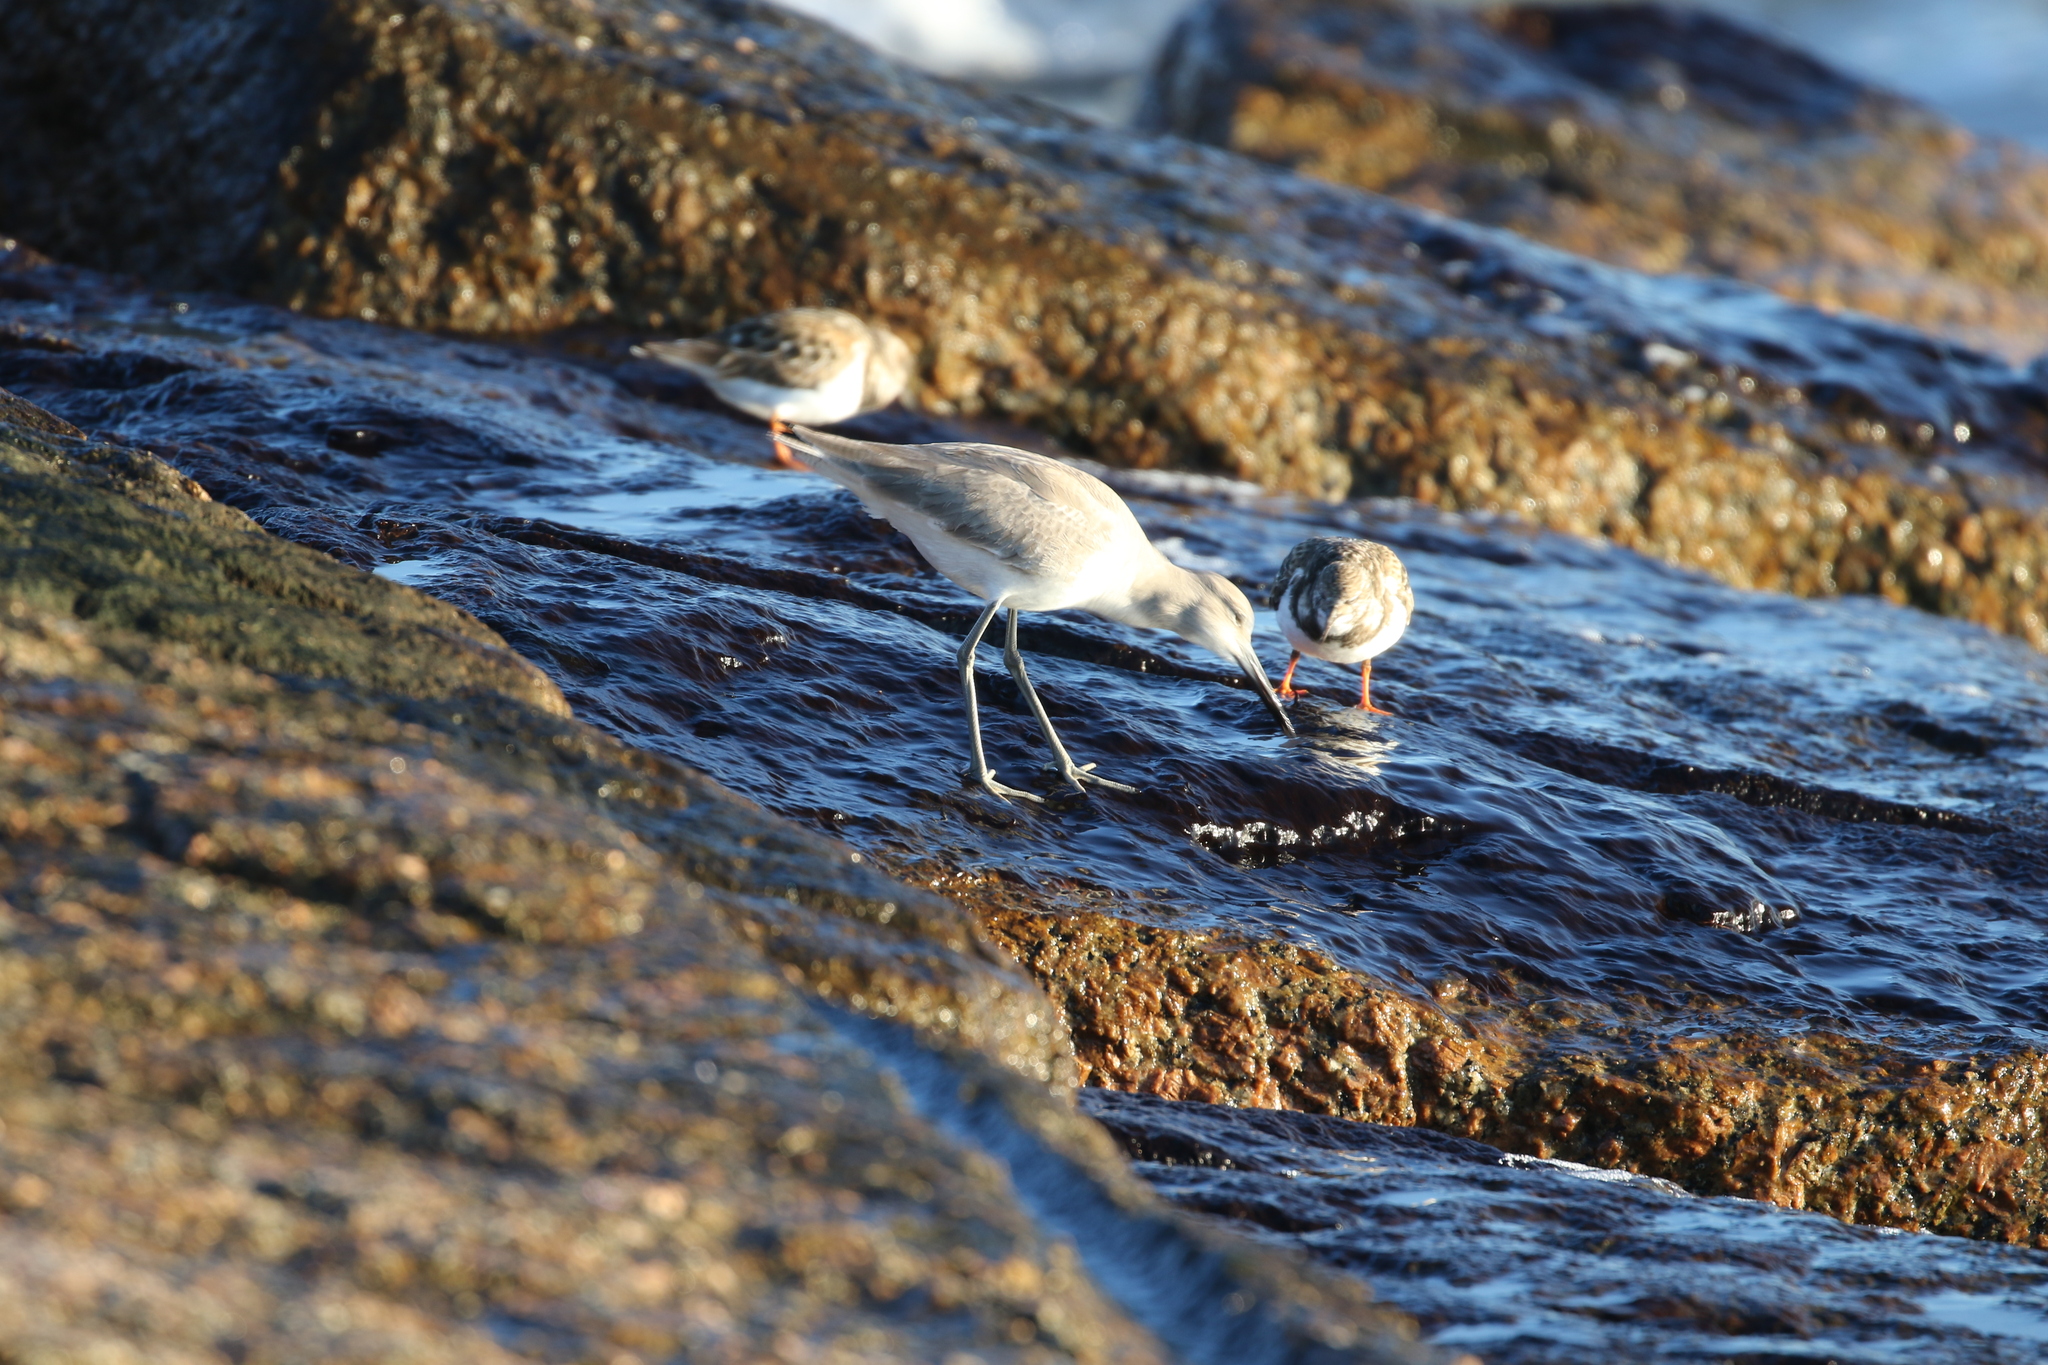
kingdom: Animalia
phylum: Chordata
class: Aves
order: Charadriiformes
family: Scolopacidae
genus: Tringa
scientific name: Tringa semipalmata
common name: Willet
